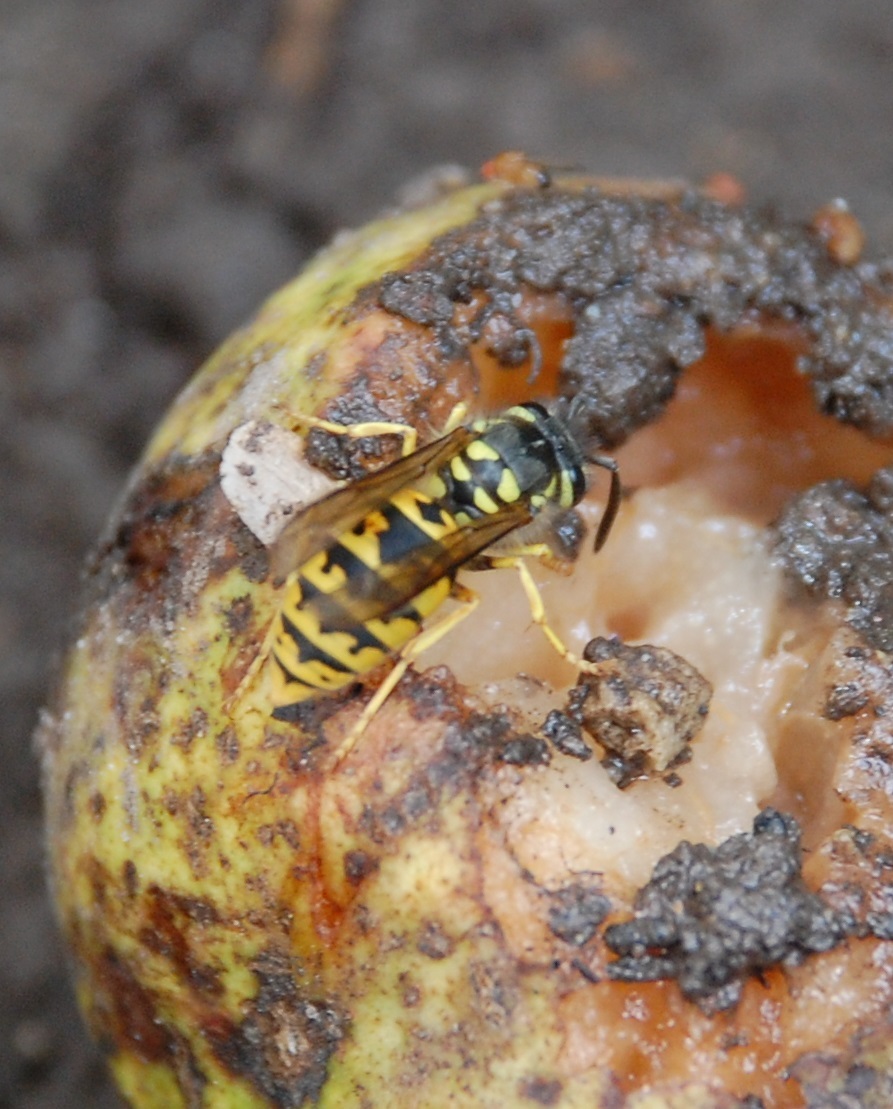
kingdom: Animalia
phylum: Arthropoda
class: Insecta
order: Hymenoptera
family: Vespidae
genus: Vespula
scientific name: Vespula germanica
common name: German wasp
